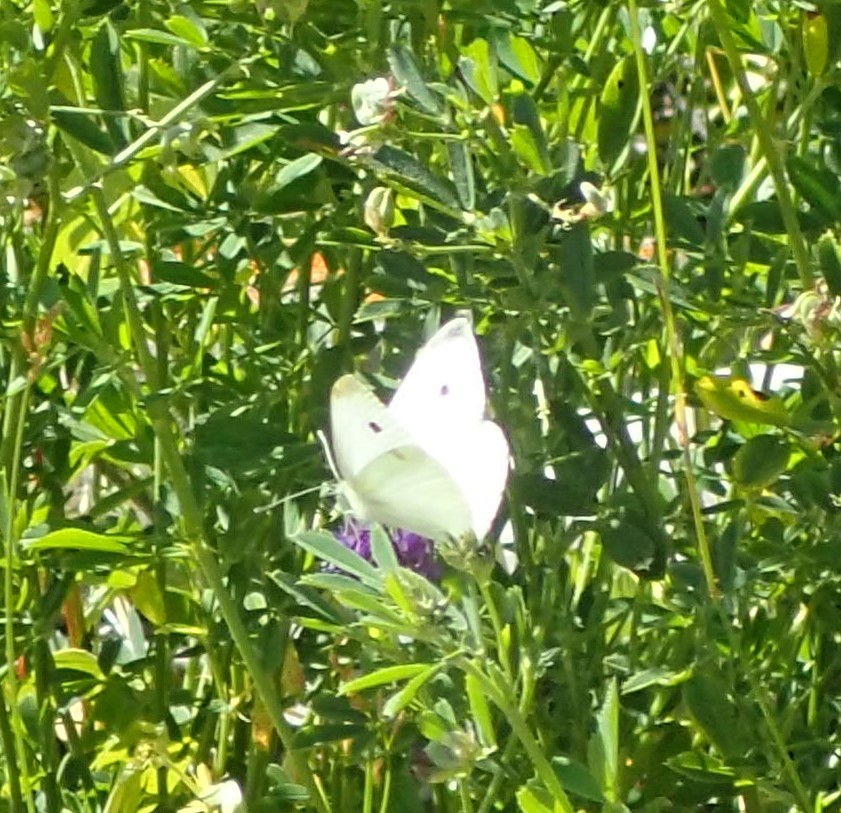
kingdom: Animalia
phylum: Arthropoda
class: Insecta
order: Lepidoptera
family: Pieridae
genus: Pieris
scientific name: Pieris rapae
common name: Small white
